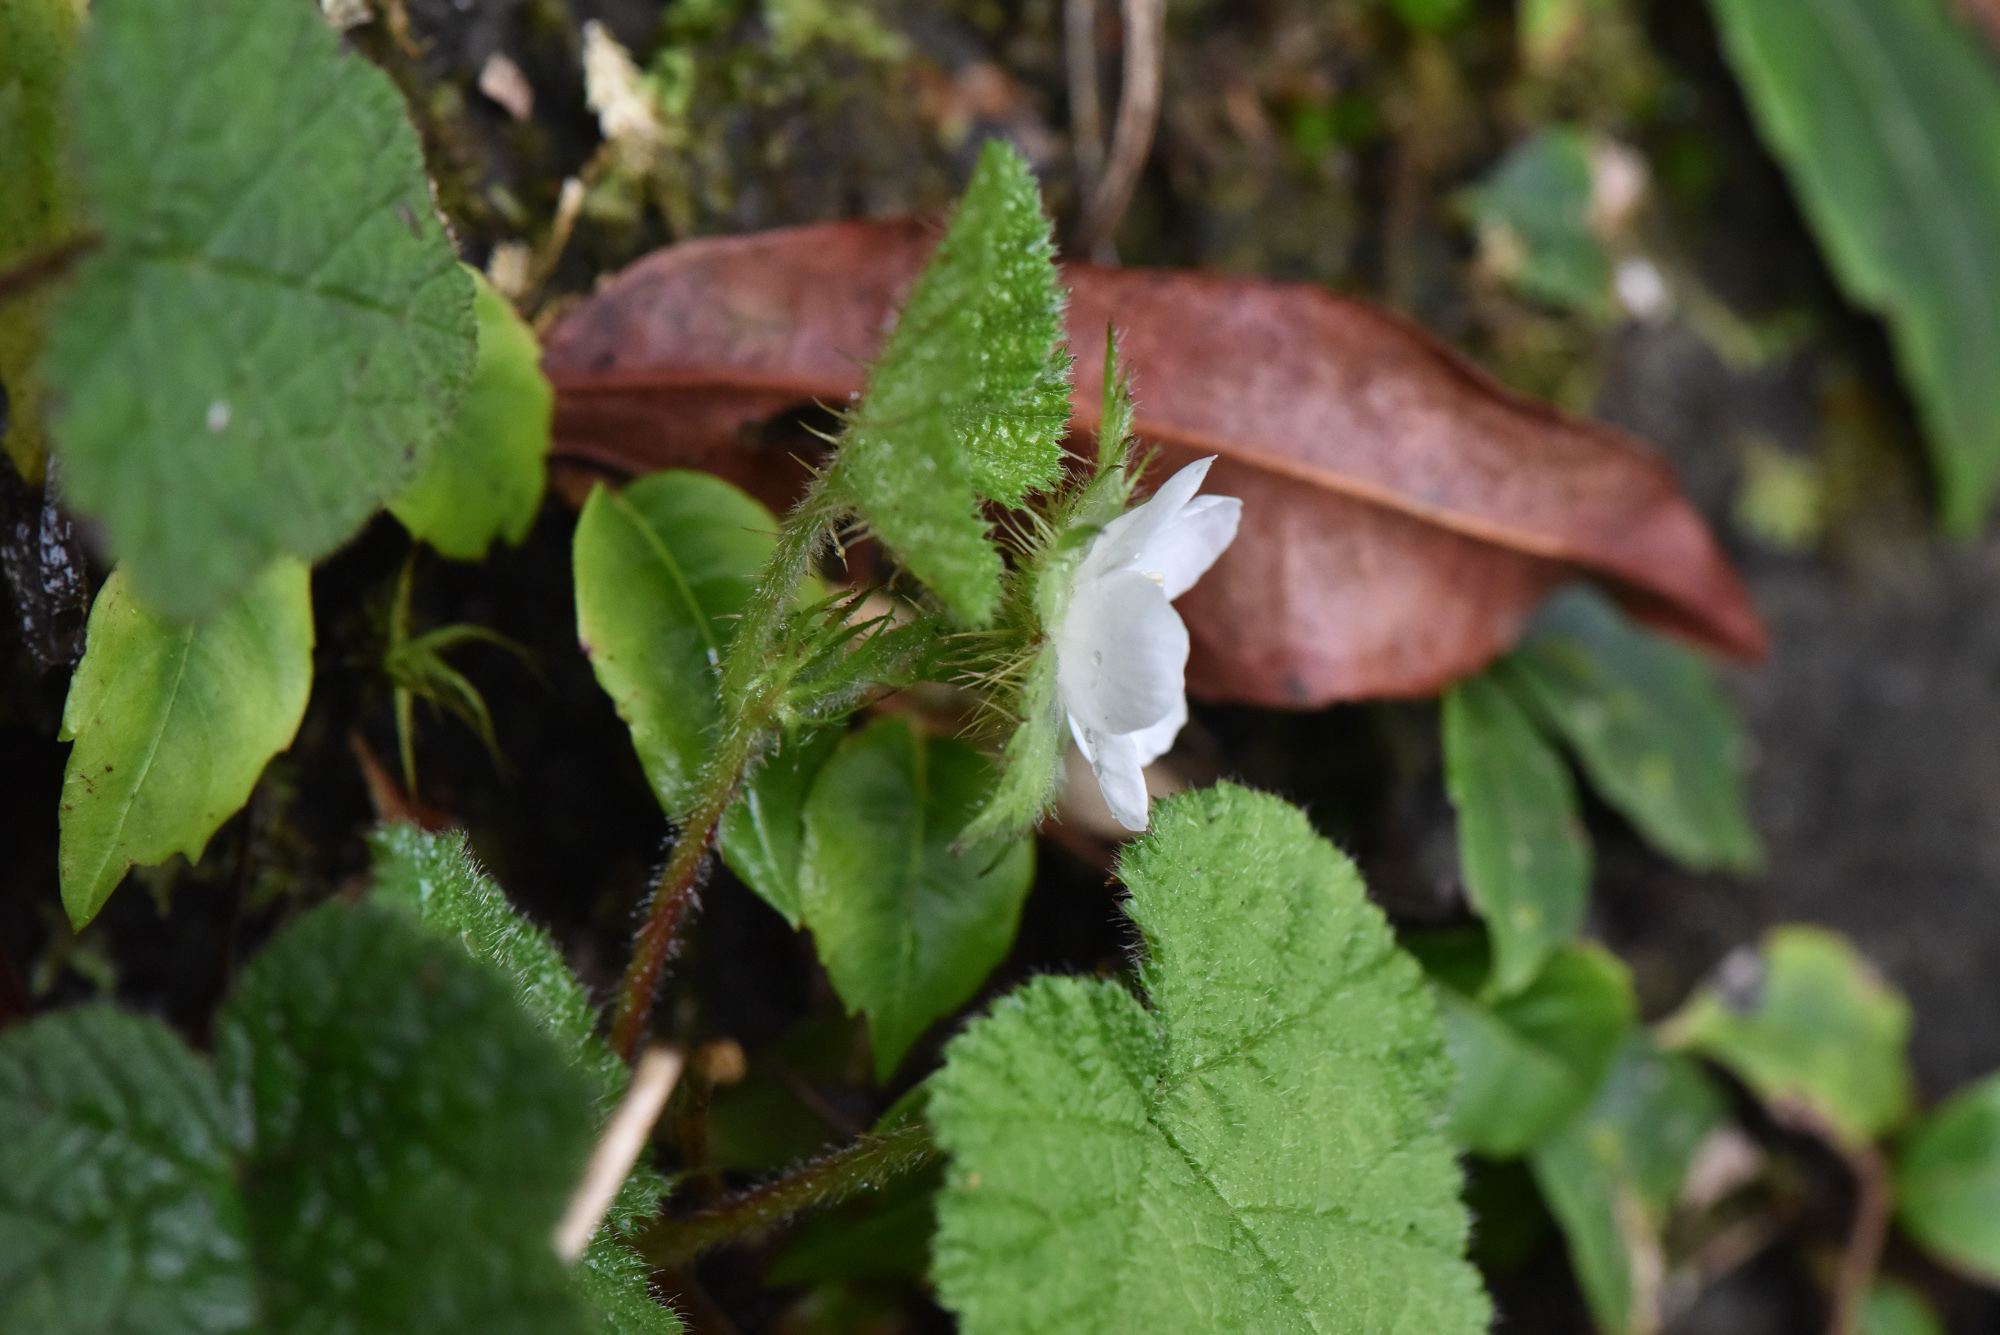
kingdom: Plantae
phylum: Tracheophyta
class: Magnoliopsida
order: Rosales
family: Rosaceae
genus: Rubus
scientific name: Rubus pectinellus
